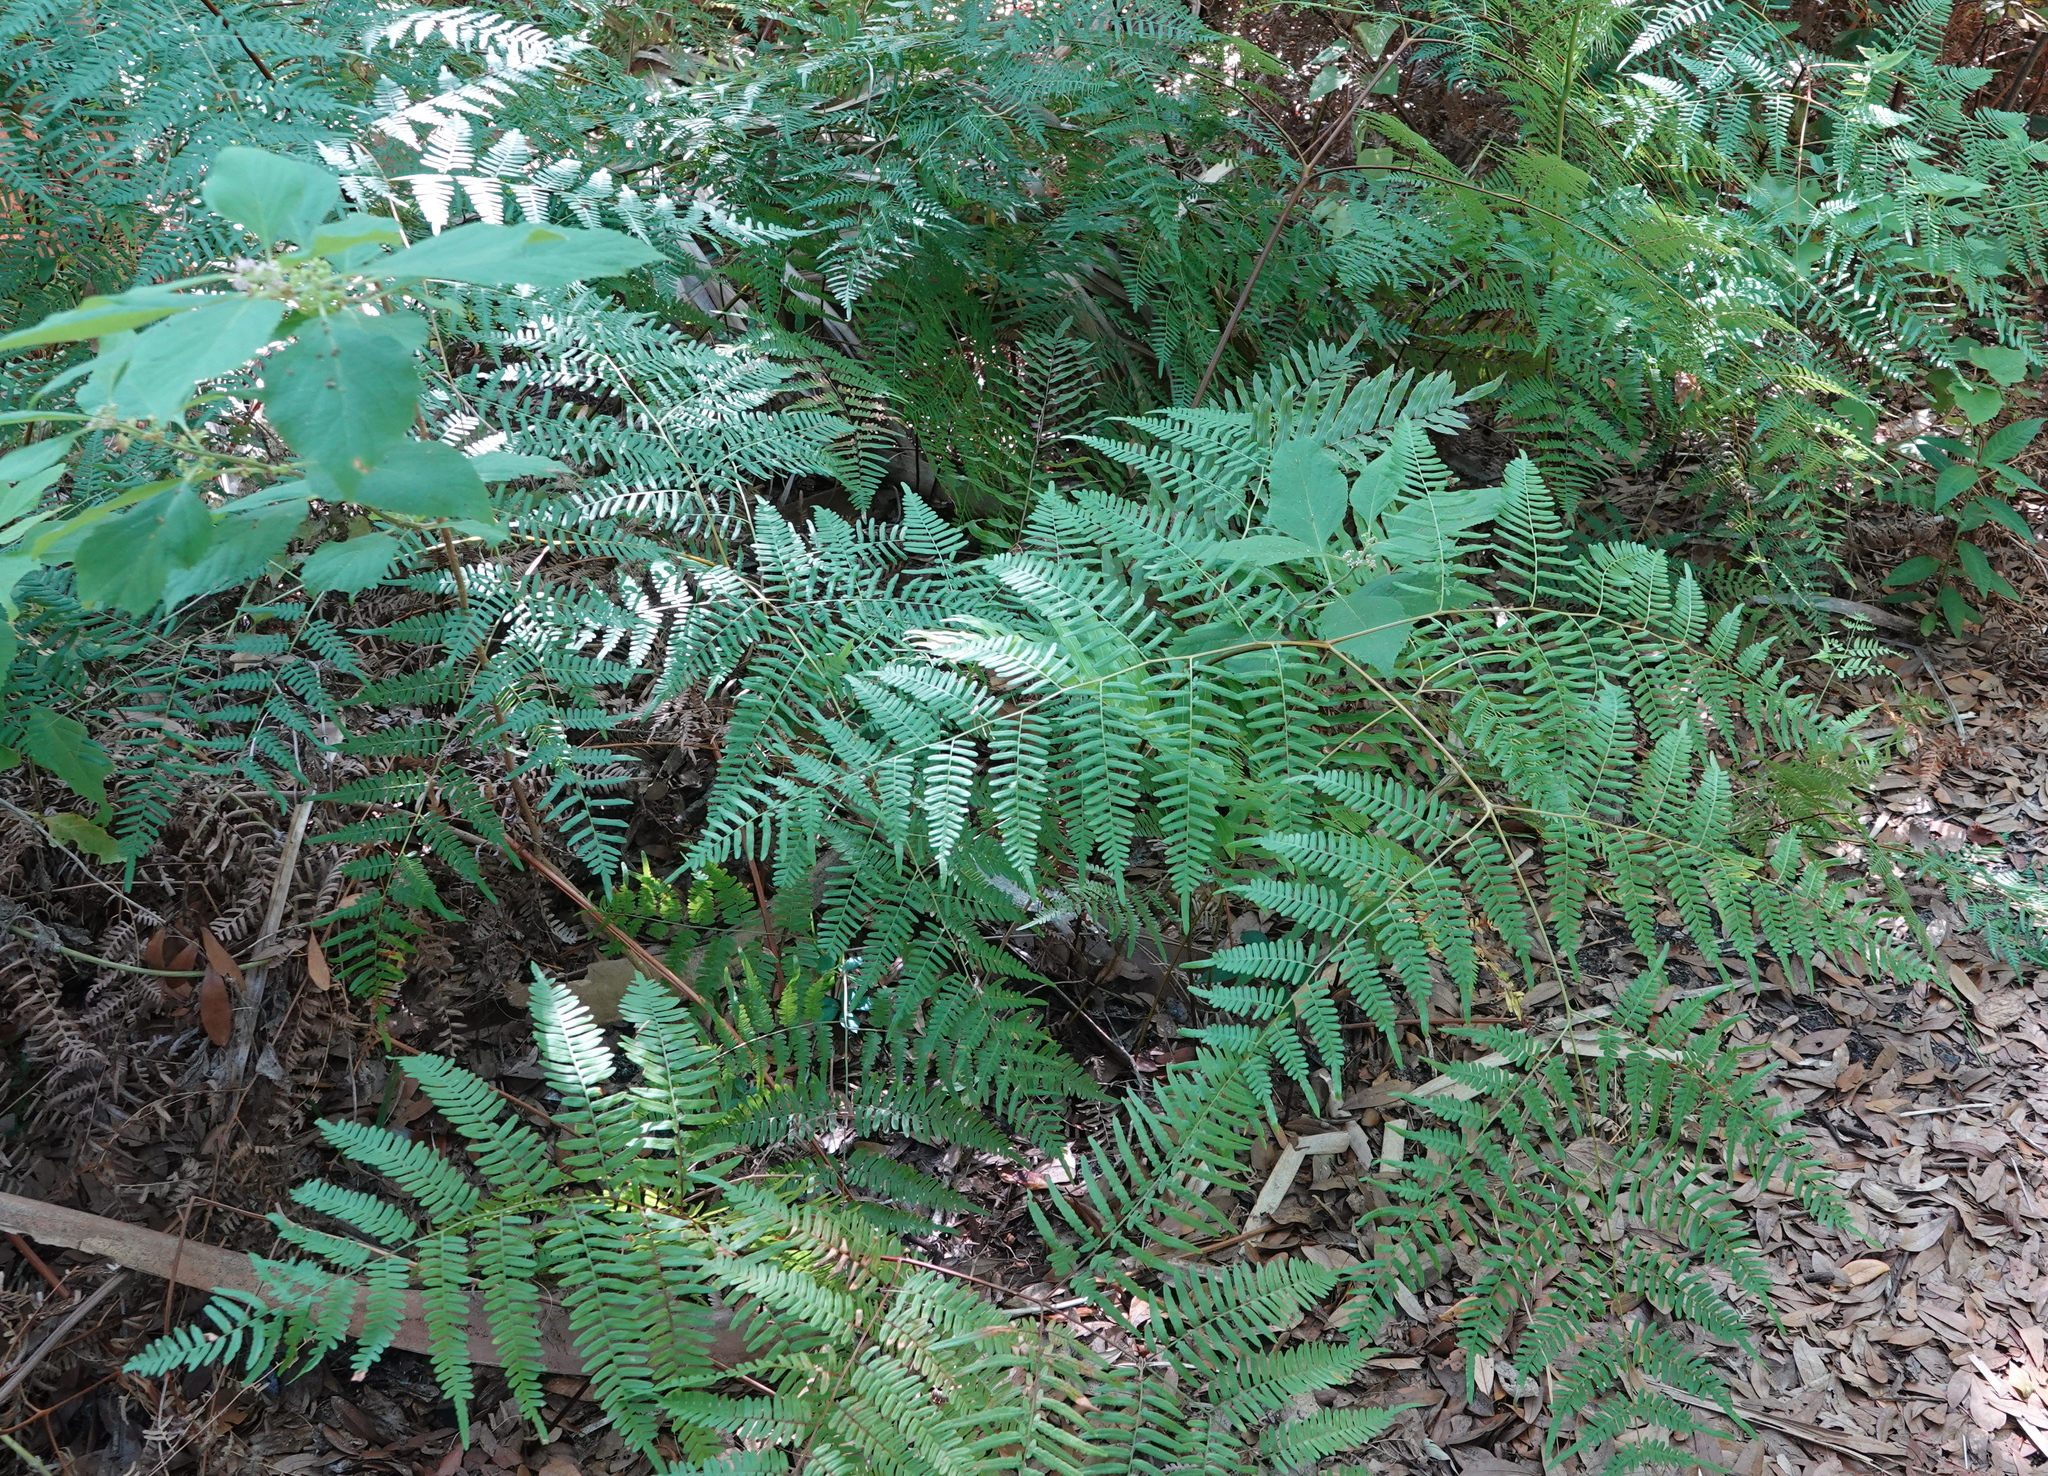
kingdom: Plantae
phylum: Tracheophyta
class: Polypodiopsida
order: Polypodiales
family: Dennstaedtiaceae
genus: Pteridium
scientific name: Pteridium aquilinum
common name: Bracken
